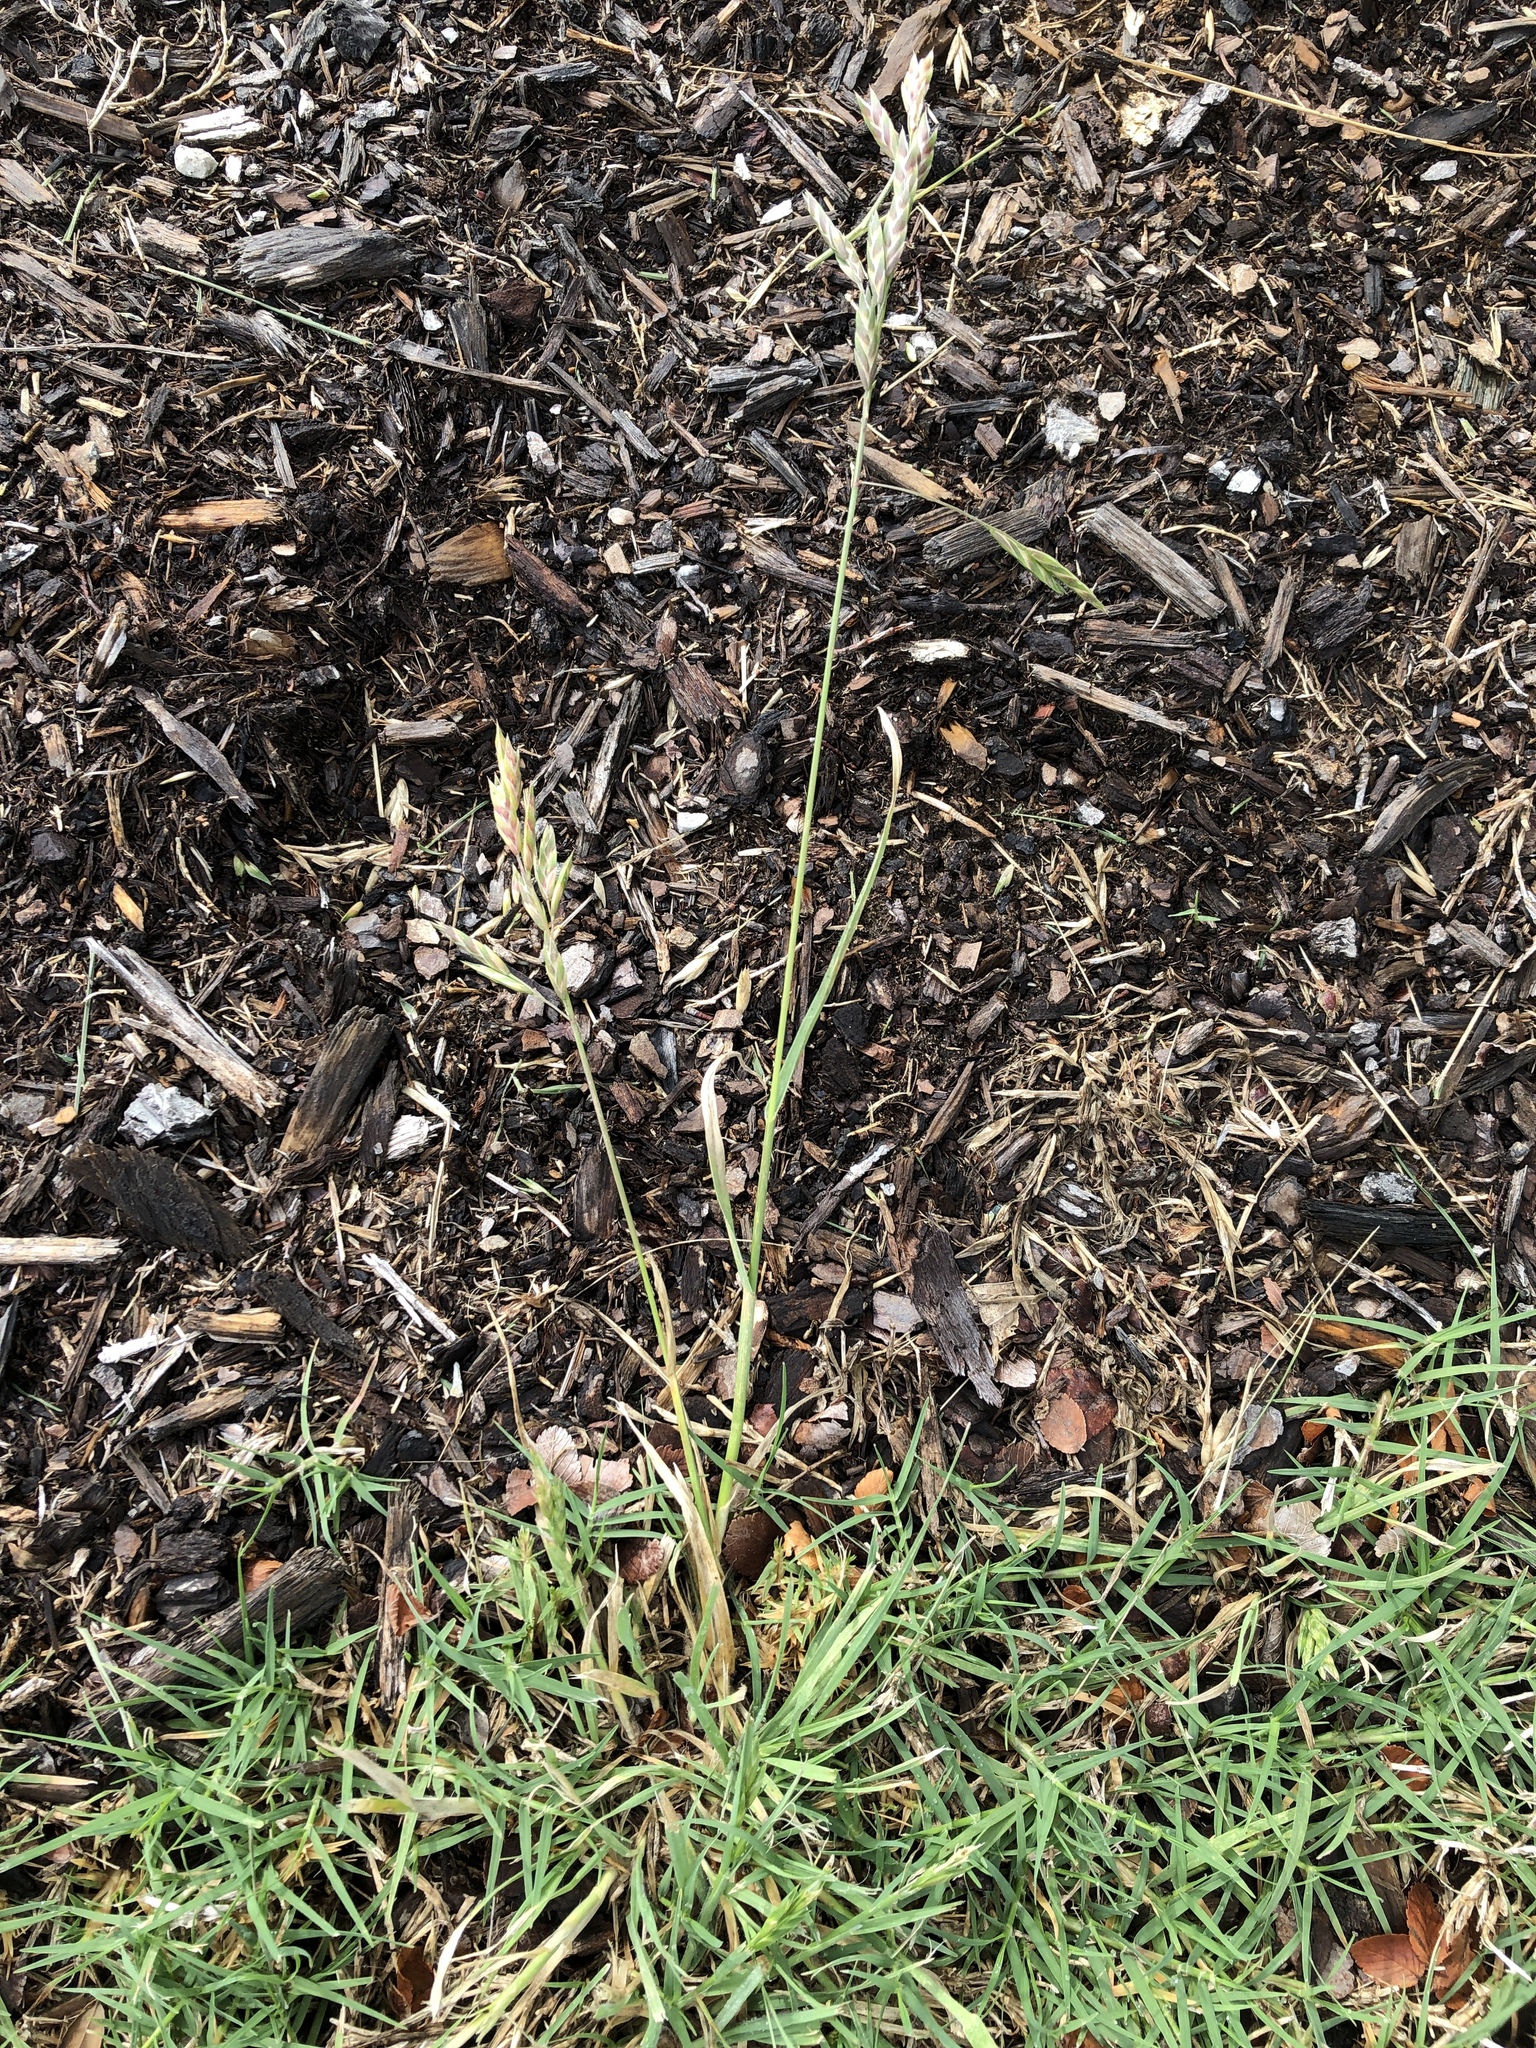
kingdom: Plantae
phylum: Tracheophyta
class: Liliopsida
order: Poales
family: Poaceae
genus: Bromus
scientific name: Bromus catharticus
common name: Rescuegrass
